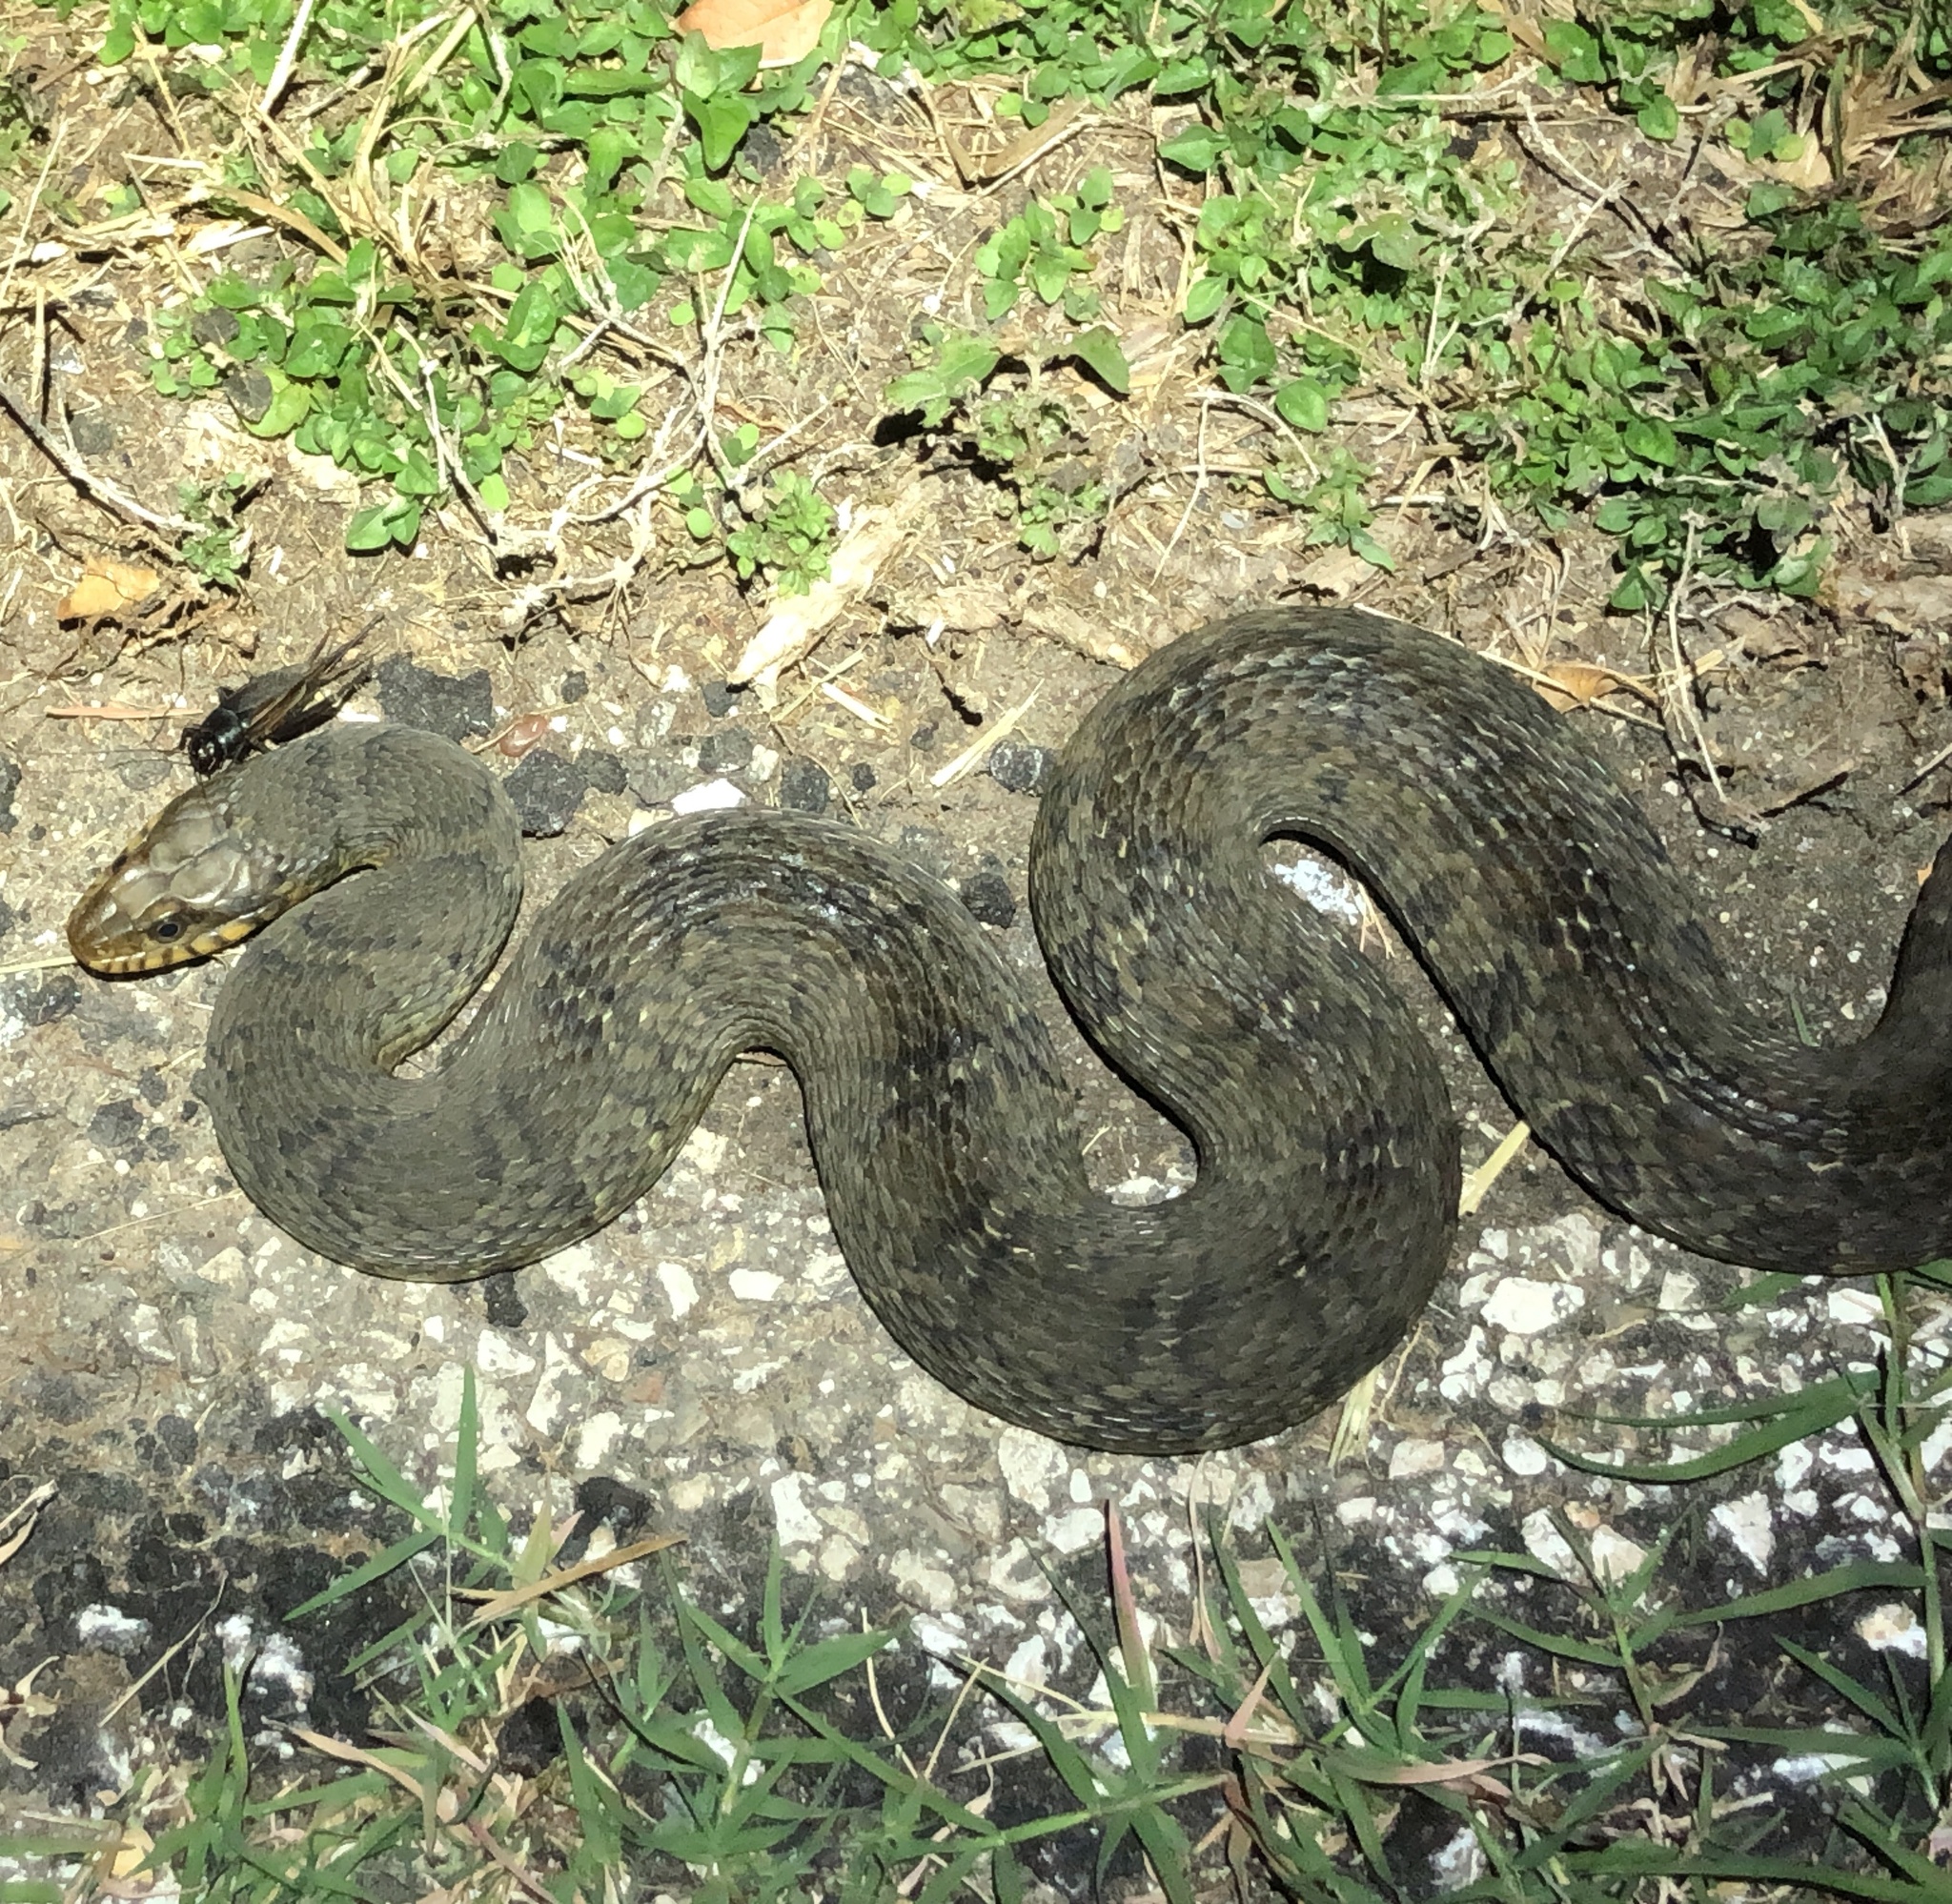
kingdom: Animalia
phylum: Chordata
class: Squamata
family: Colubridae
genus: Nerodia
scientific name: Nerodia erythrogaster
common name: Plainbelly water snake
